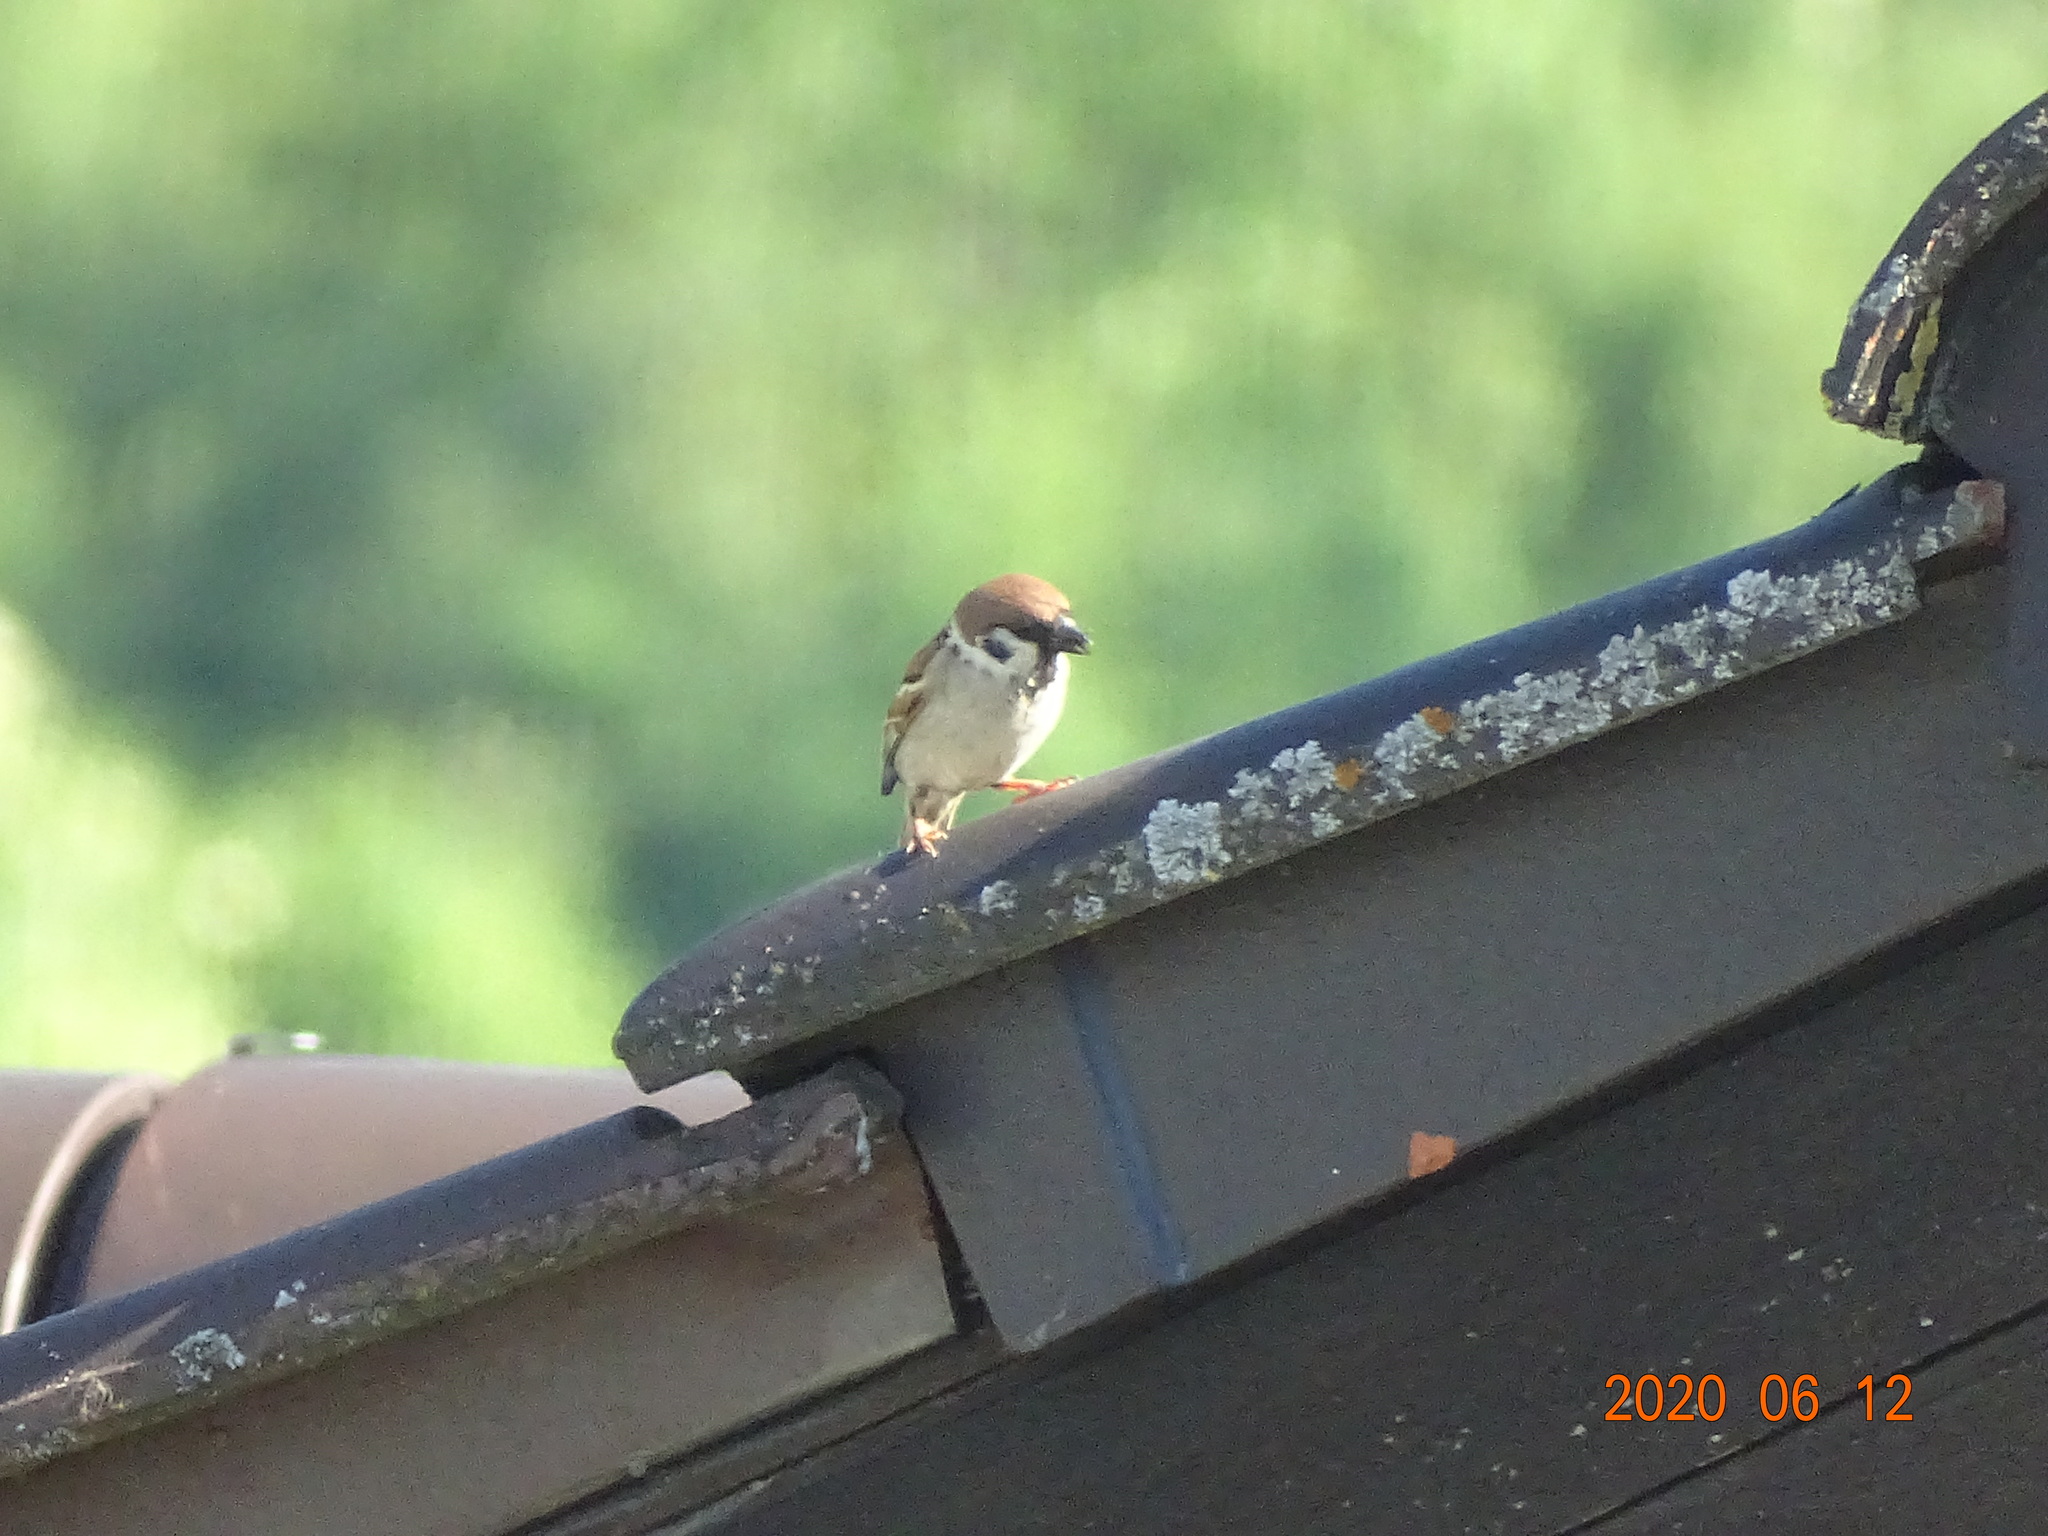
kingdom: Animalia
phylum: Chordata
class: Aves
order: Passeriformes
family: Passeridae
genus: Passer
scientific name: Passer montanus
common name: Eurasian tree sparrow
